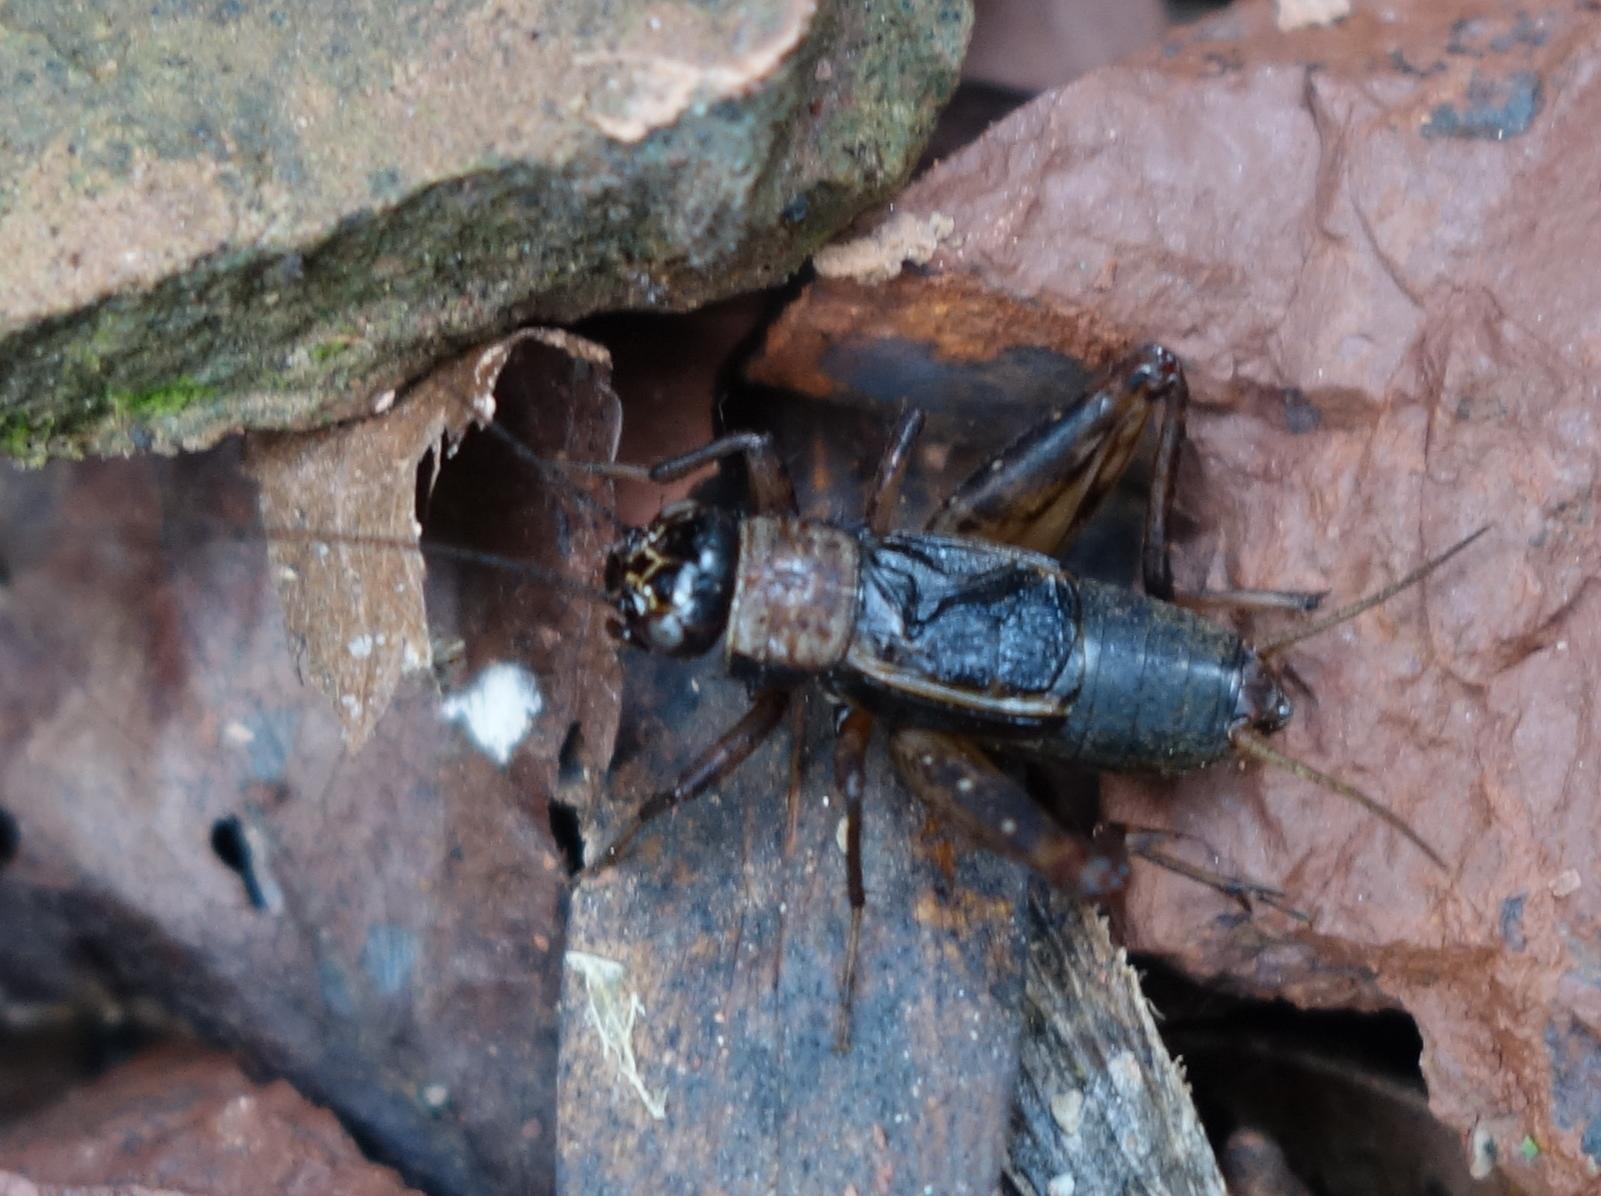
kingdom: Animalia
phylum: Arthropoda
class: Insecta
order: Orthoptera
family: Trigonidiidae
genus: Nemobius
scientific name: Nemobius sylvestris
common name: Wood-cricket
